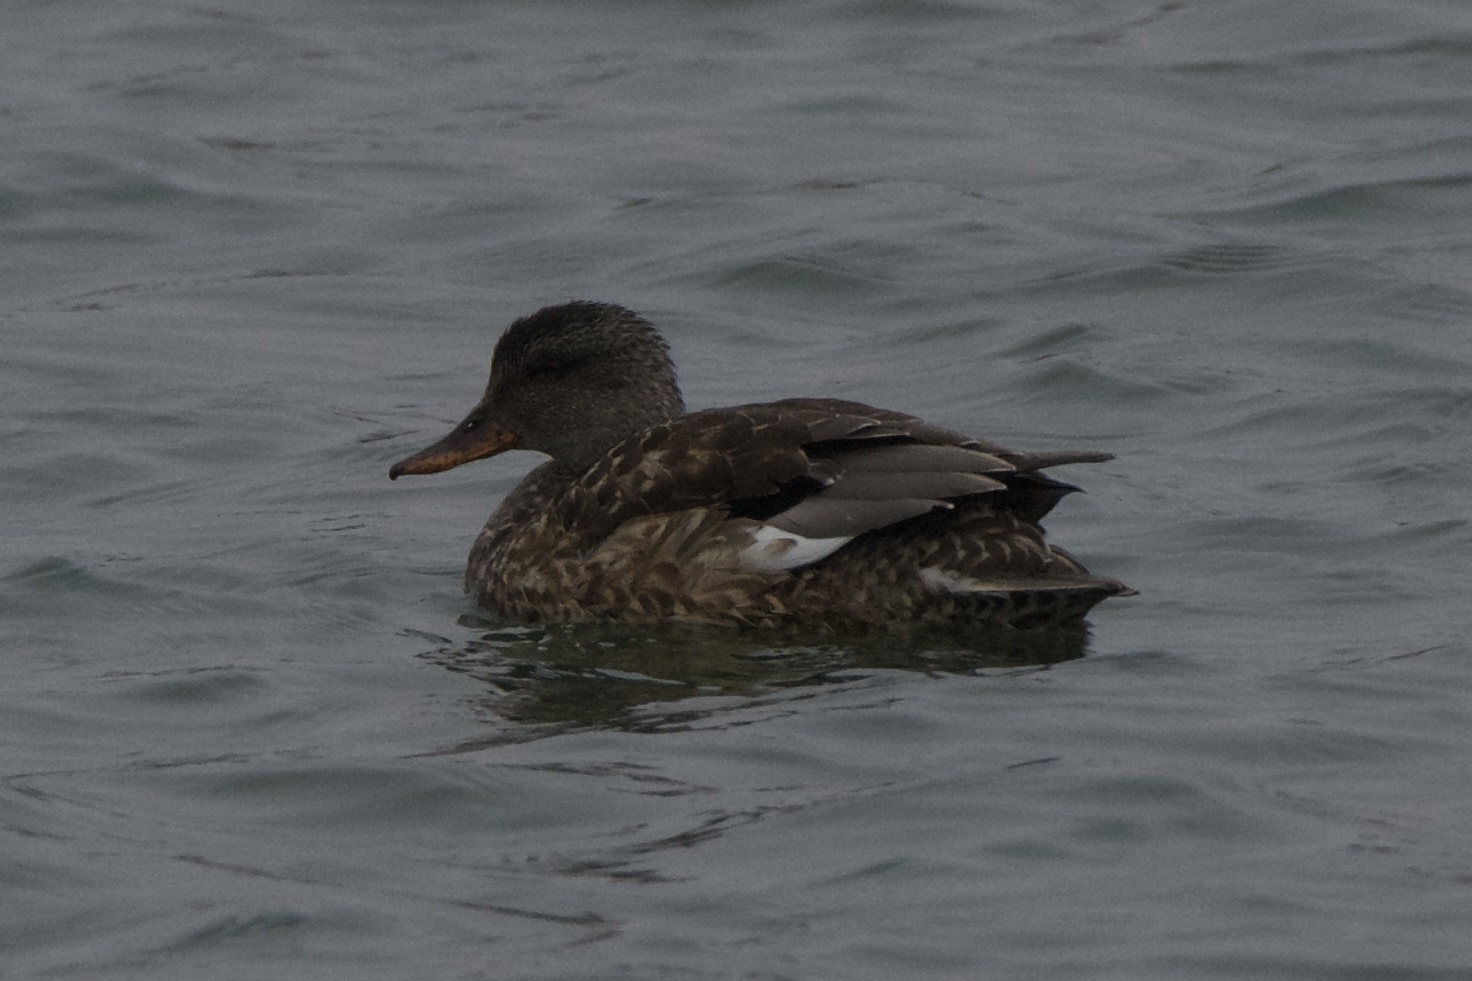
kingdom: Animalia
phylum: Chordata
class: Aves
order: Anseriformes
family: Anatidae
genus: Mareca
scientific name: Mareca strepera
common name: Gadwall
